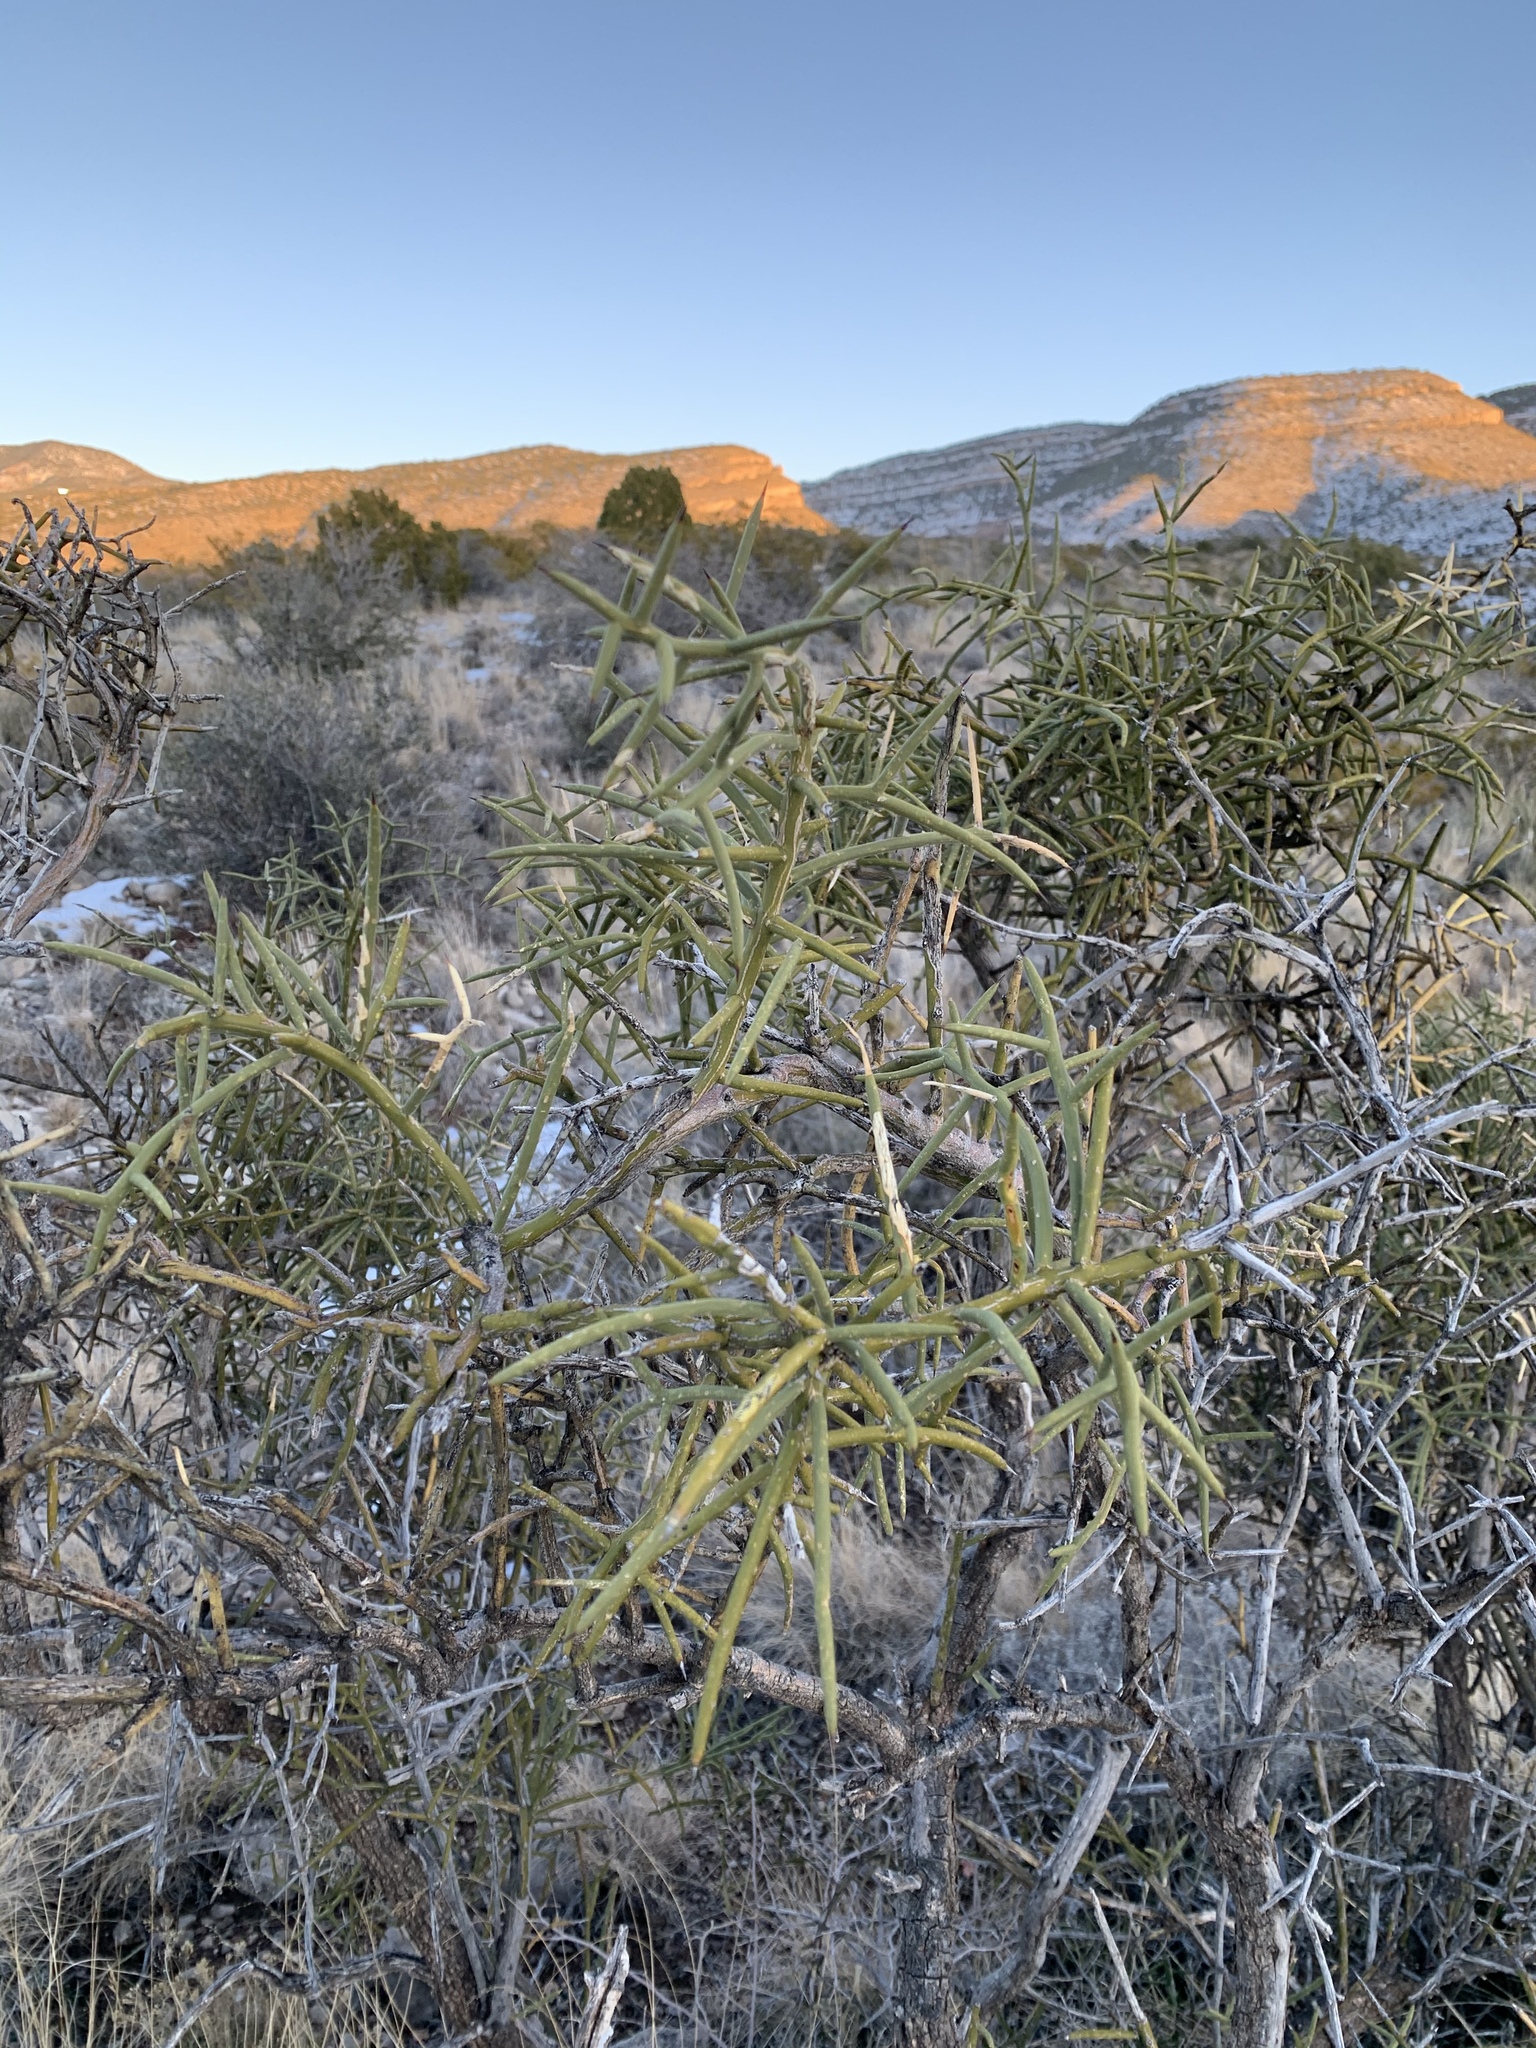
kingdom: Plantae
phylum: Tracheophyta
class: Magnoliopsida
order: Brassicales
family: Koeberliniaceae
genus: Koeberlinia
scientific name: Koeberlinia spinosa
